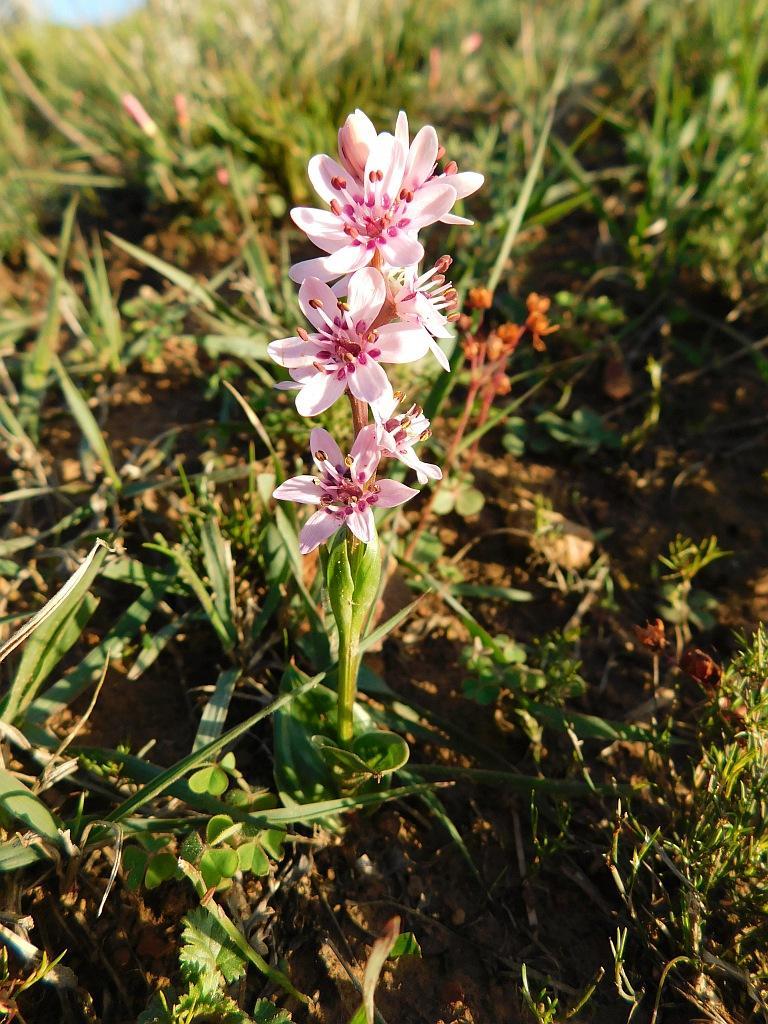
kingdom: Plantae
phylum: Tracheophyta
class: Liliopsida
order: Liliales
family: Colchicaceae
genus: Wurmbea
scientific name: Wurmbea punctata
